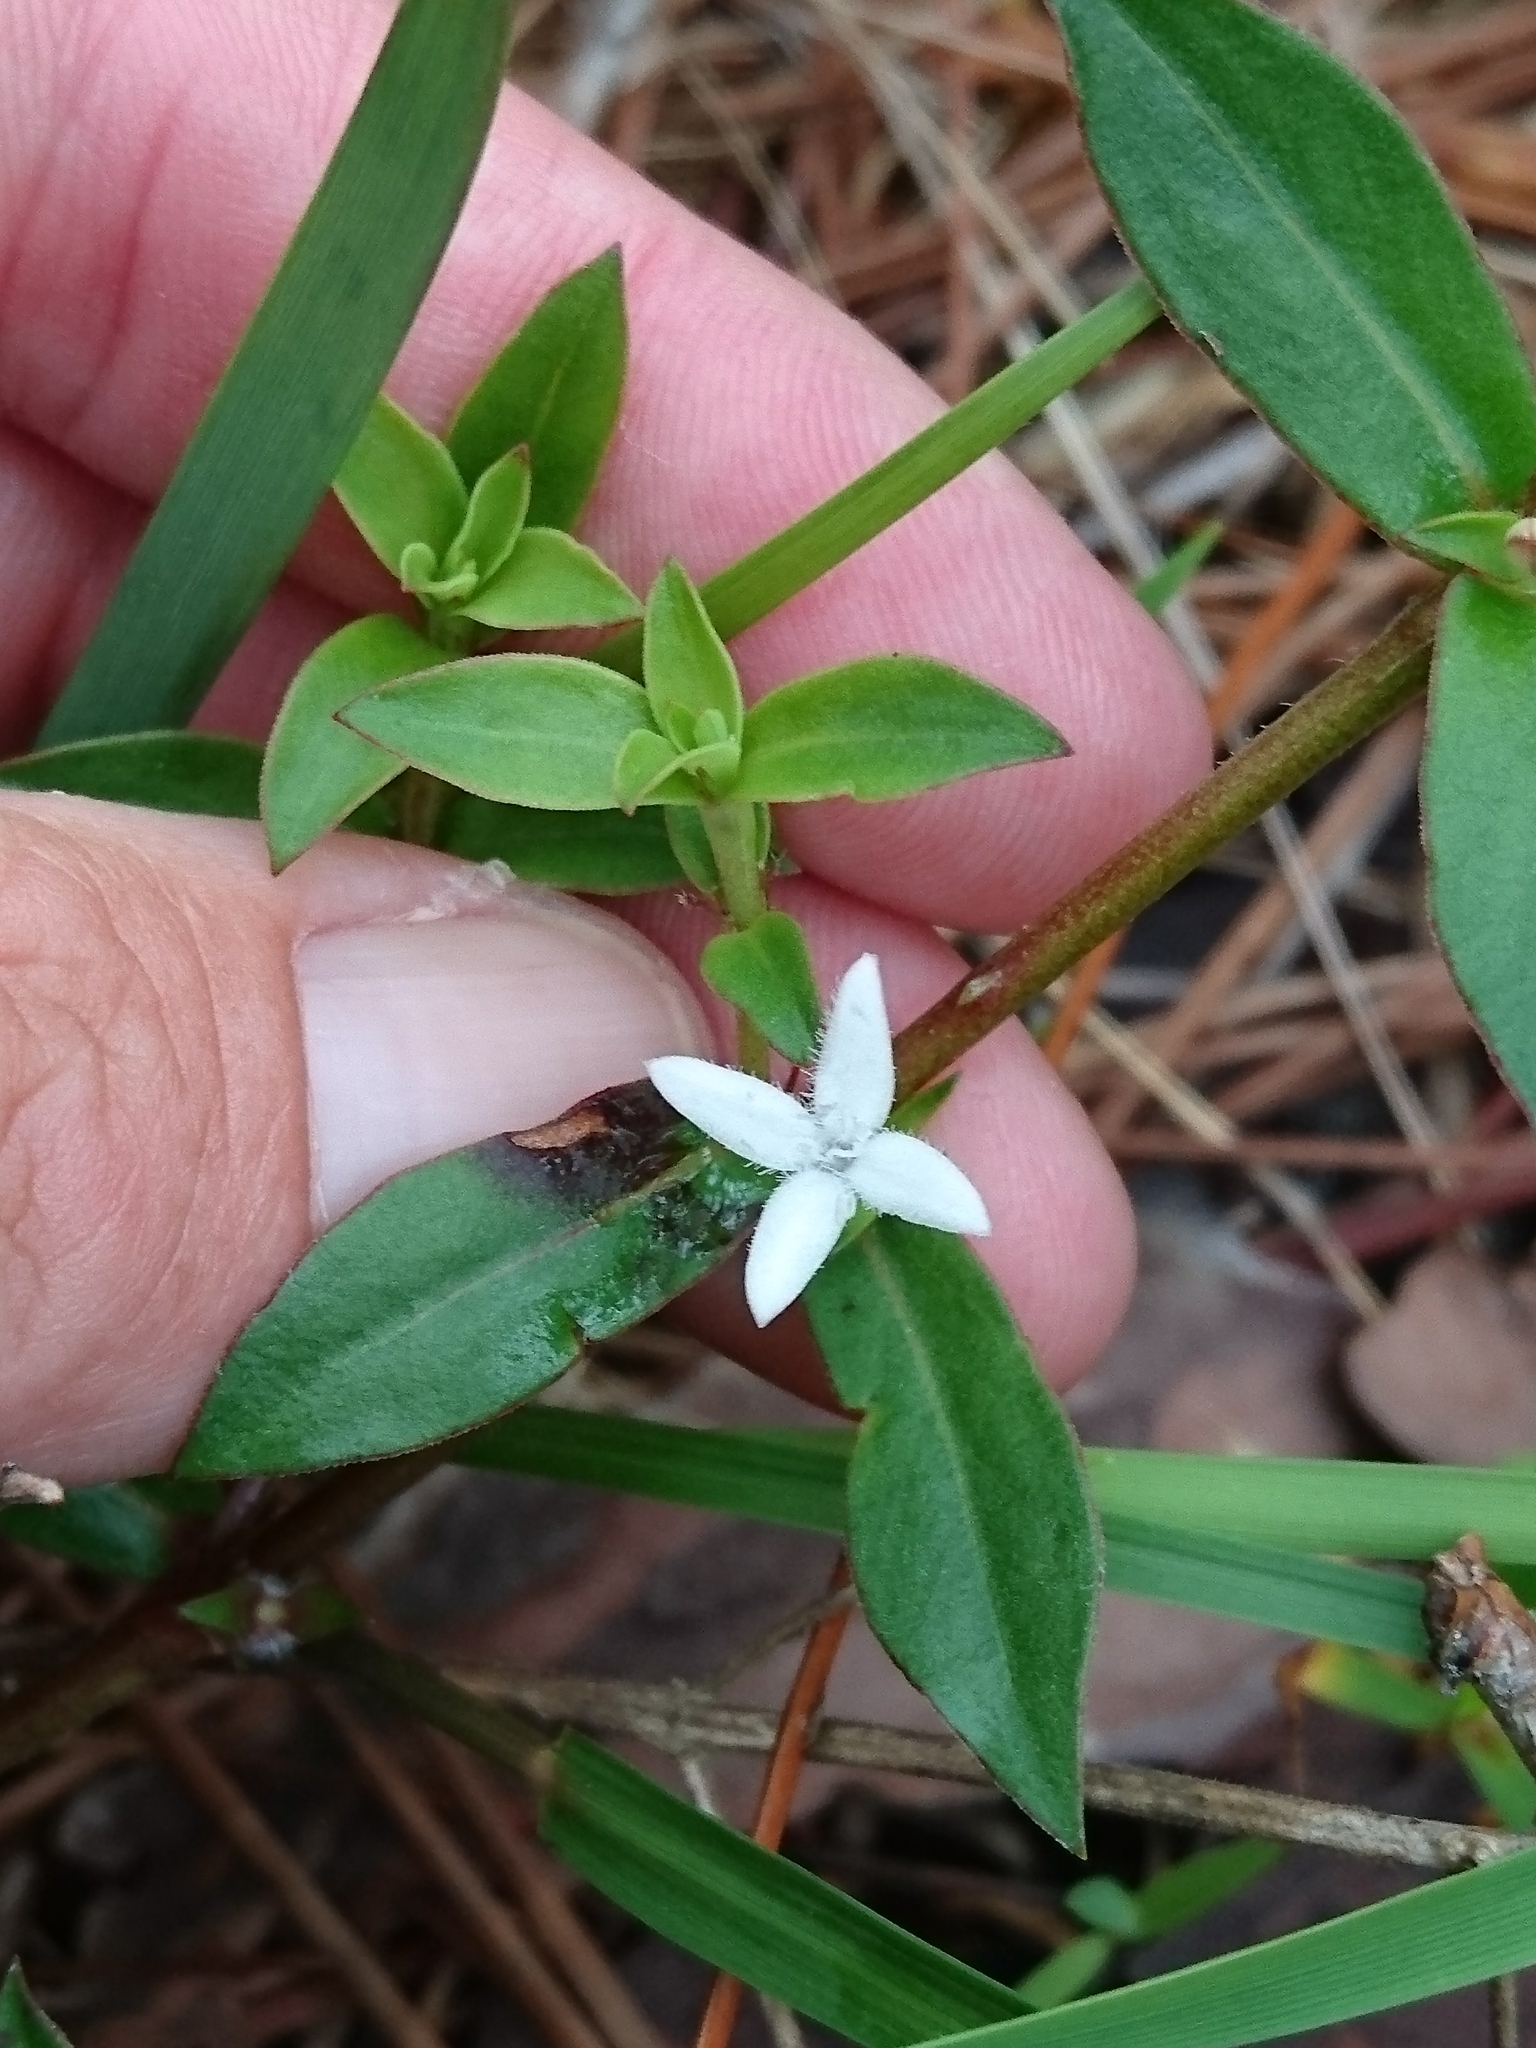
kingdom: Plantae
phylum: Tracheophyta
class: Magnoliopsida
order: Gentianales
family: Rubiaceae
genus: Diodia
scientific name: Diodia virginiana
